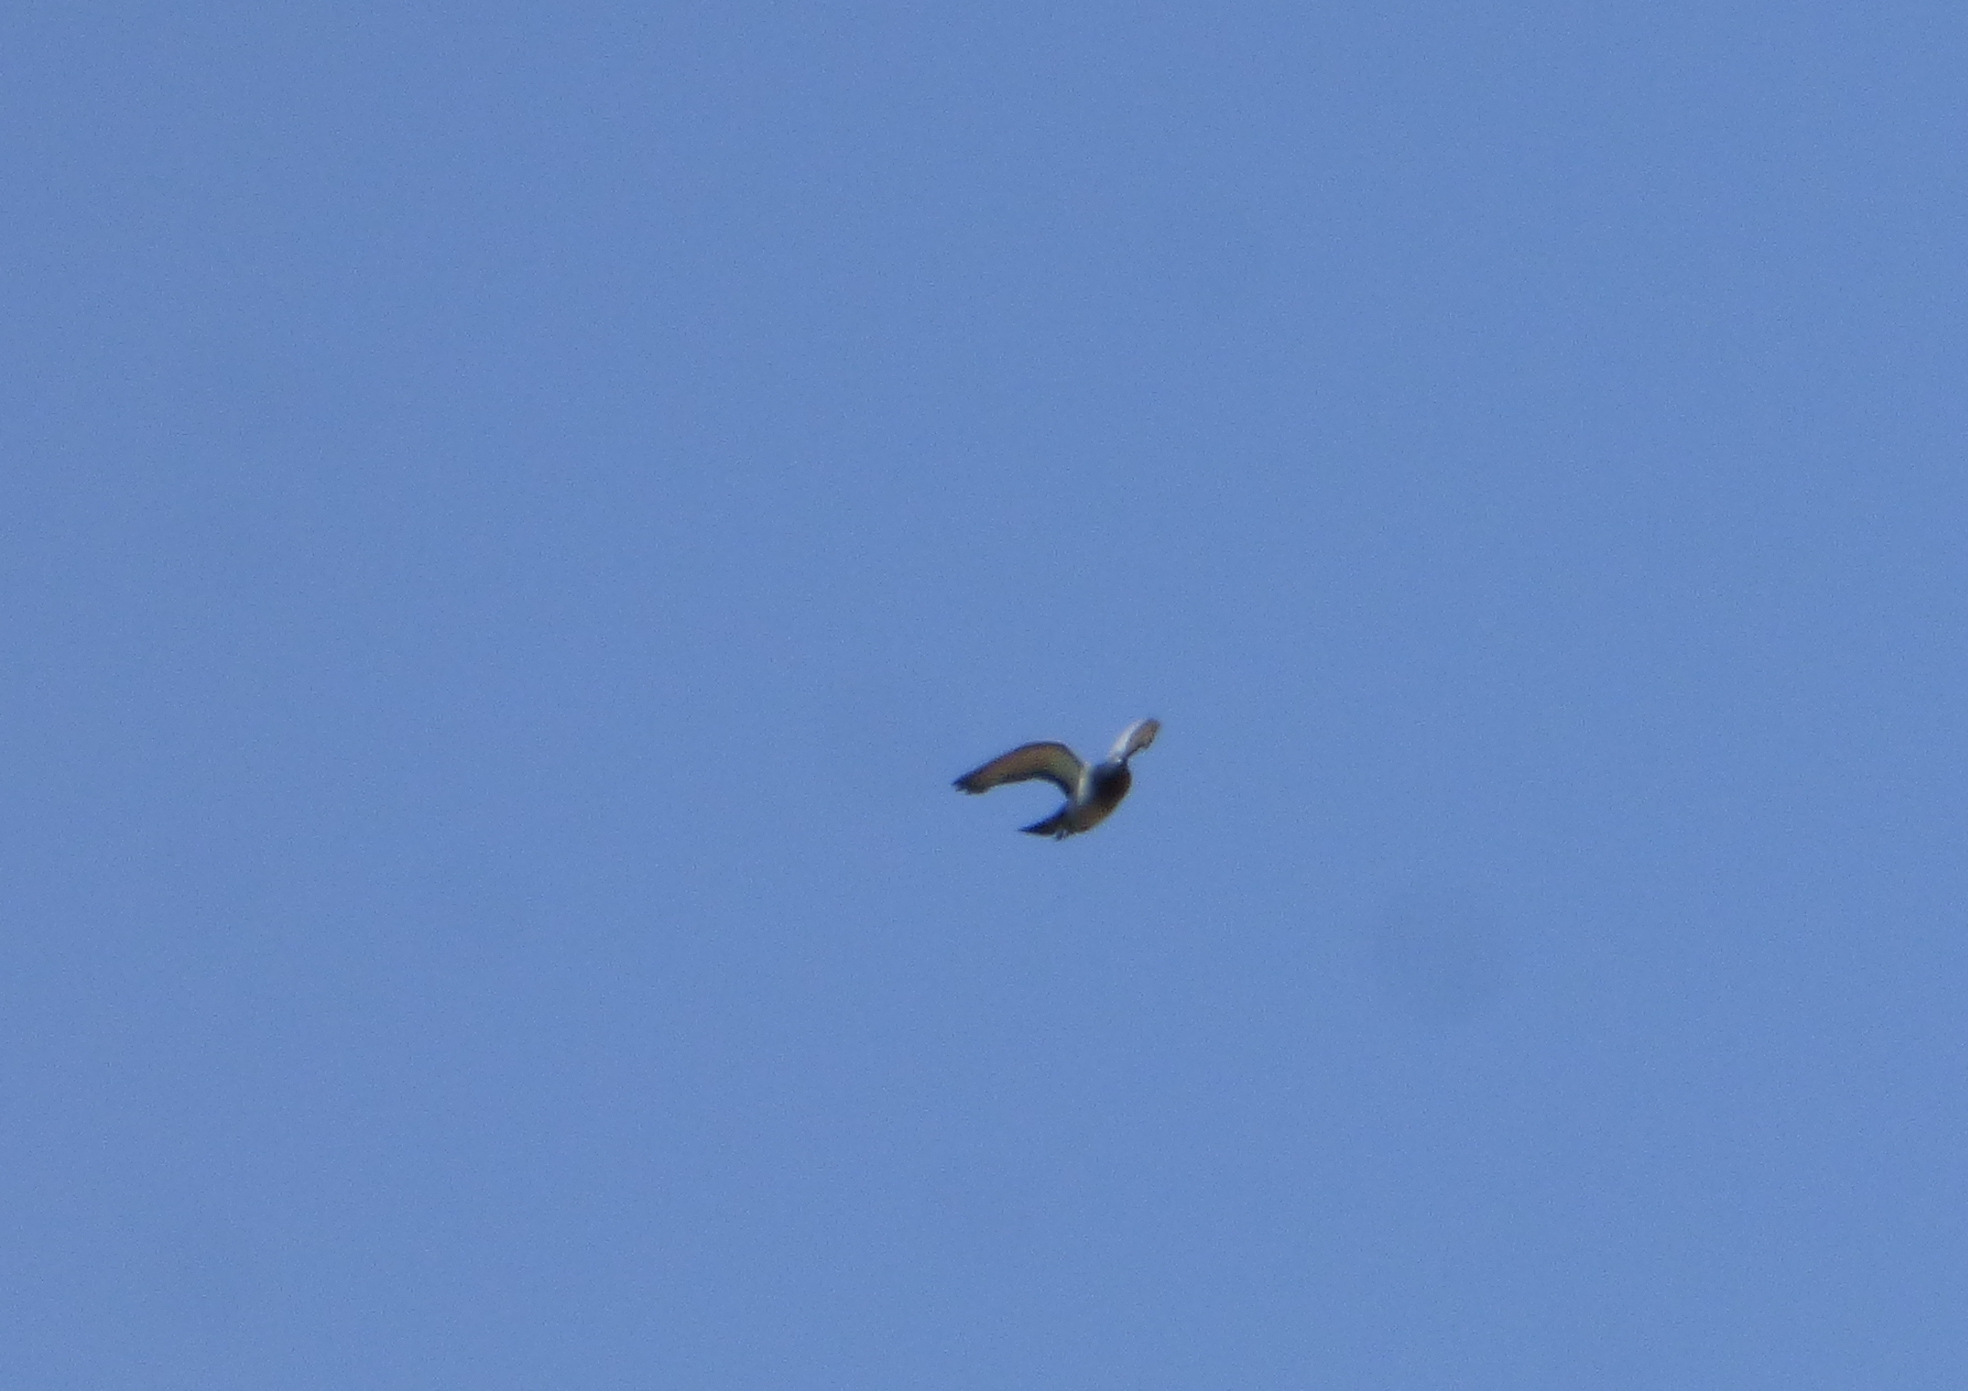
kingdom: Animalia
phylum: Chordata
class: Aves
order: Columbiformes
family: Columbidae
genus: Columba
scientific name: Columba livia
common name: Rock pigeon
